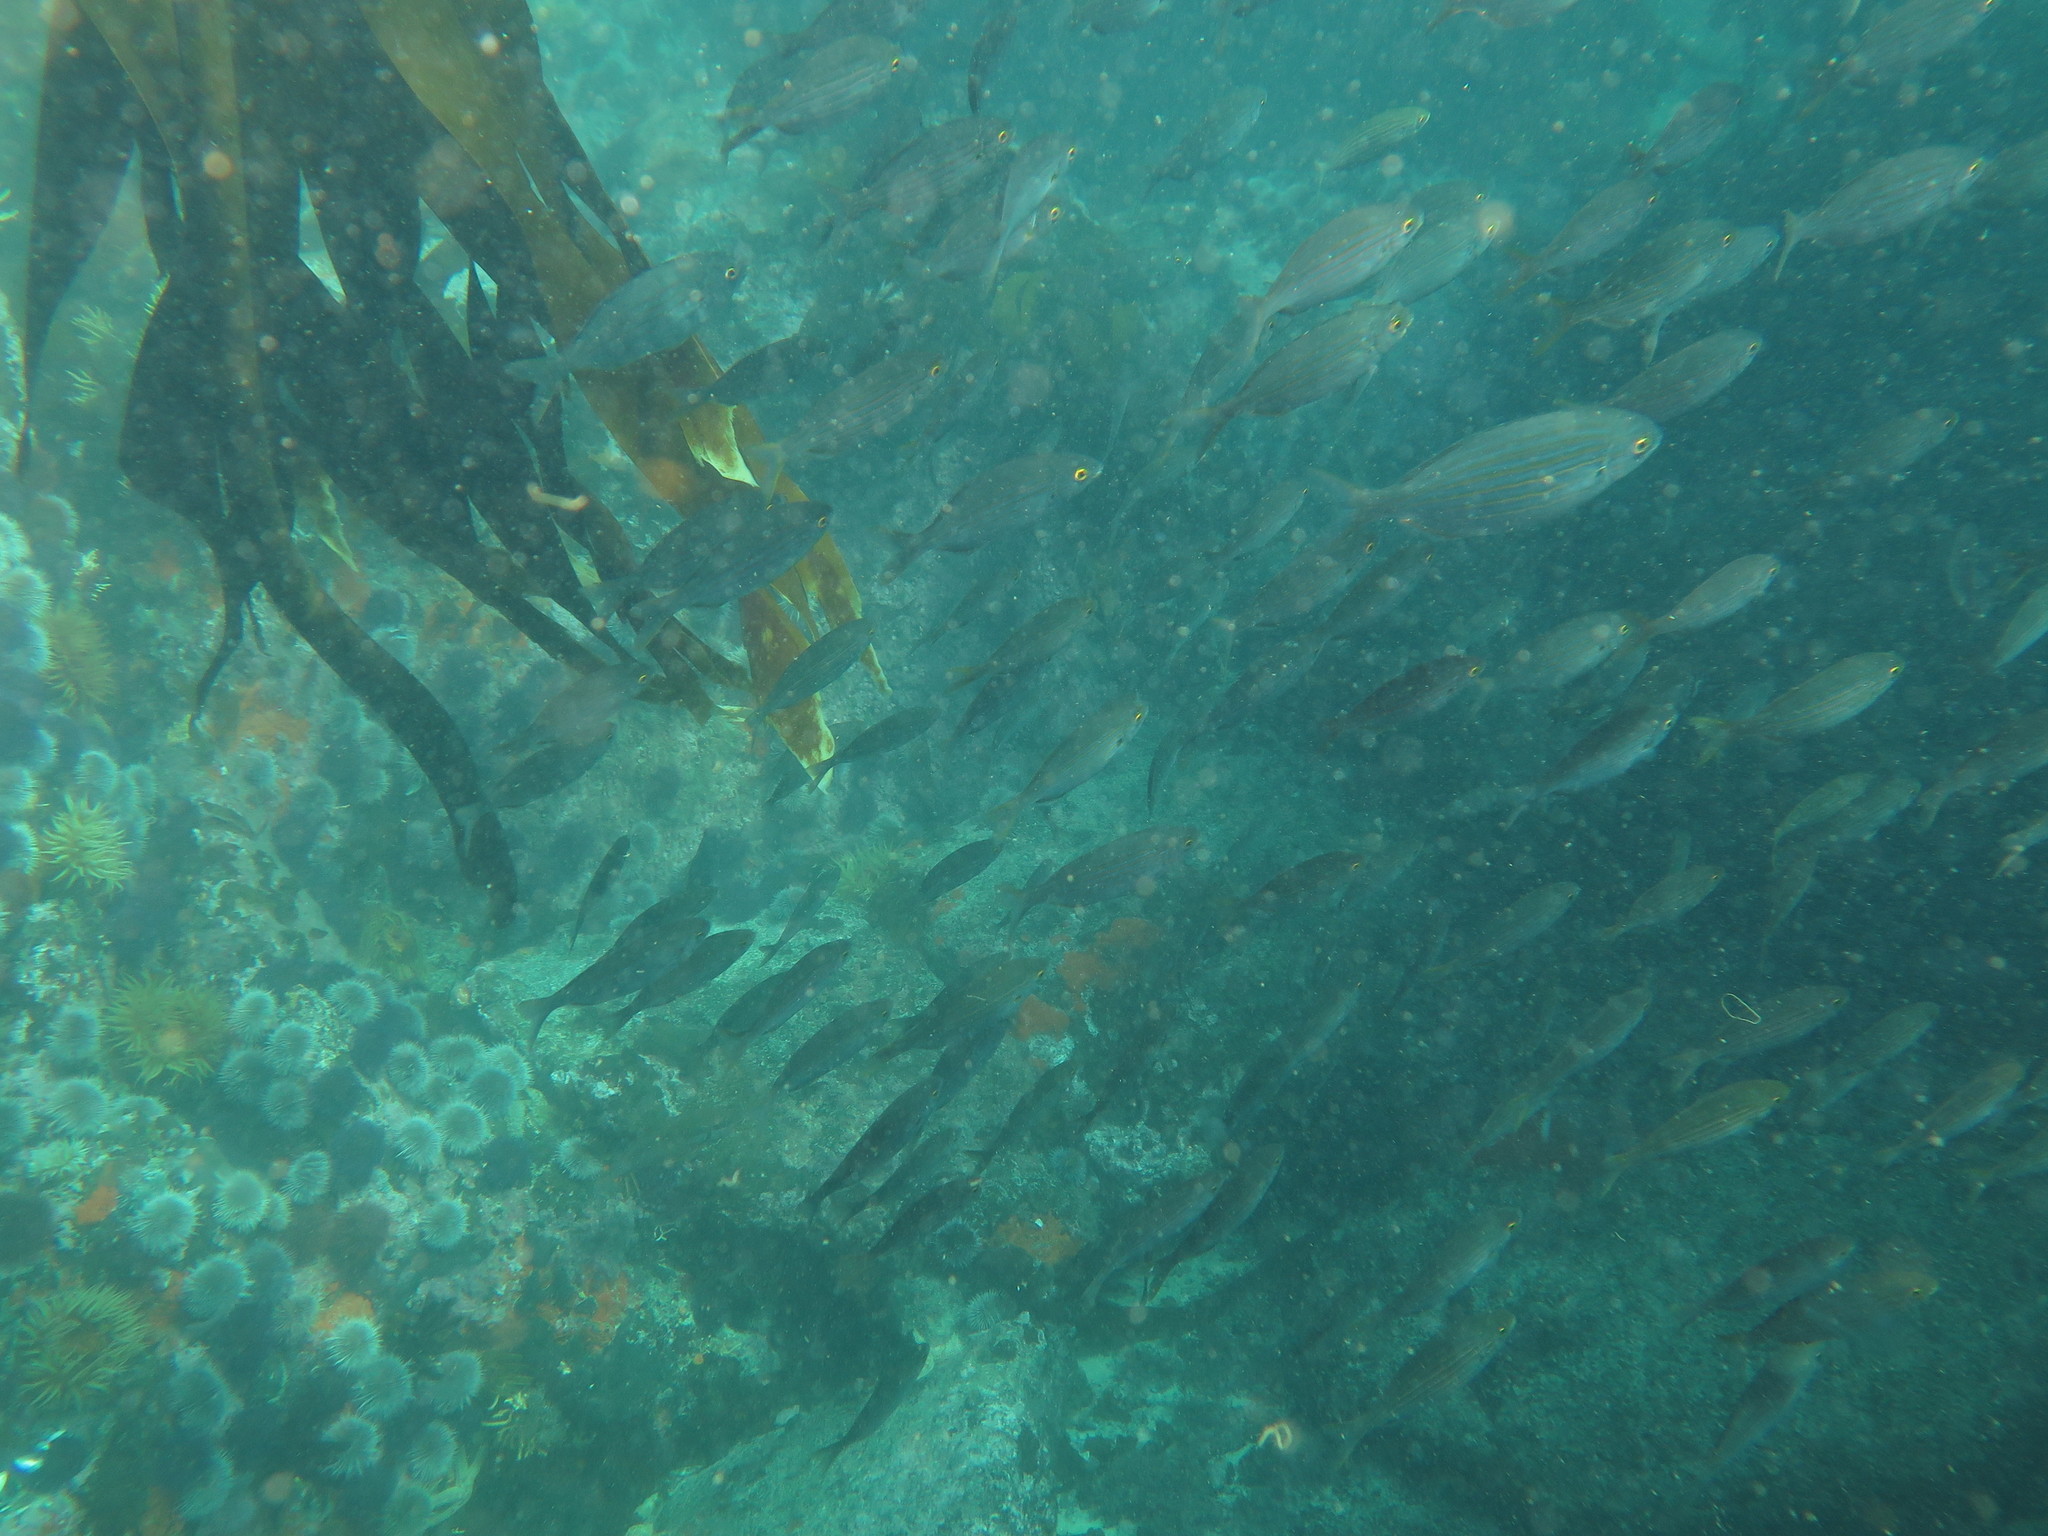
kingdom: Animalia
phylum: Chordata
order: Perciformes
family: Sparidae
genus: Sarpa
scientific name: Sarpa salpa
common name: Salema
